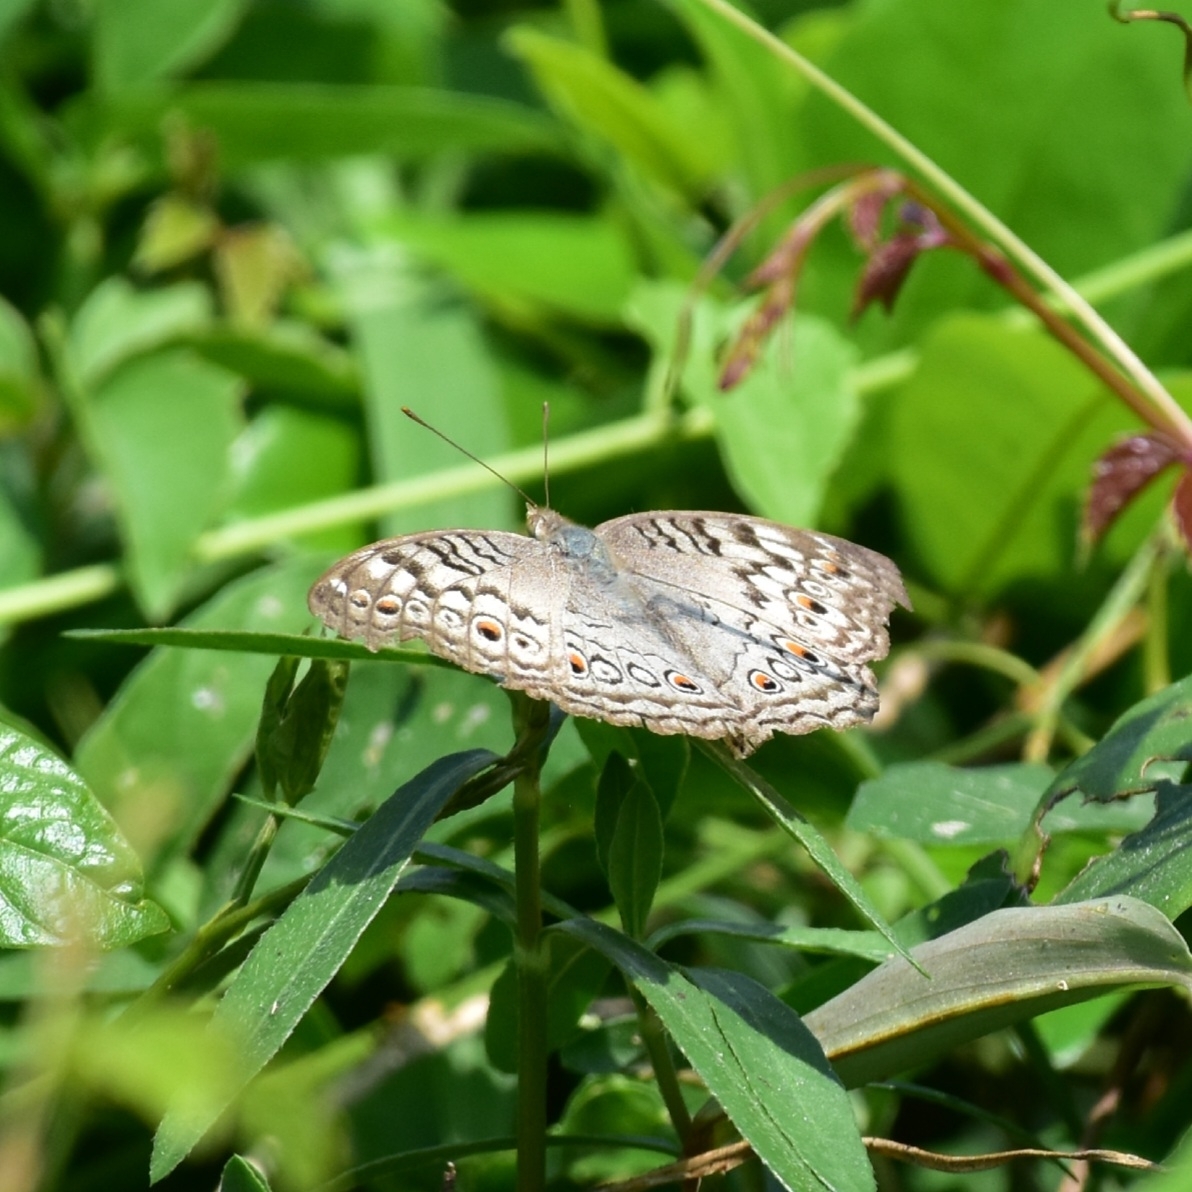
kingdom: Animalia
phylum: Arthropoda
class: Insecta
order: Lepidoptera
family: Nymphalidae
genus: Junonia
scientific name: Junonia atlites
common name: Grey pansy
